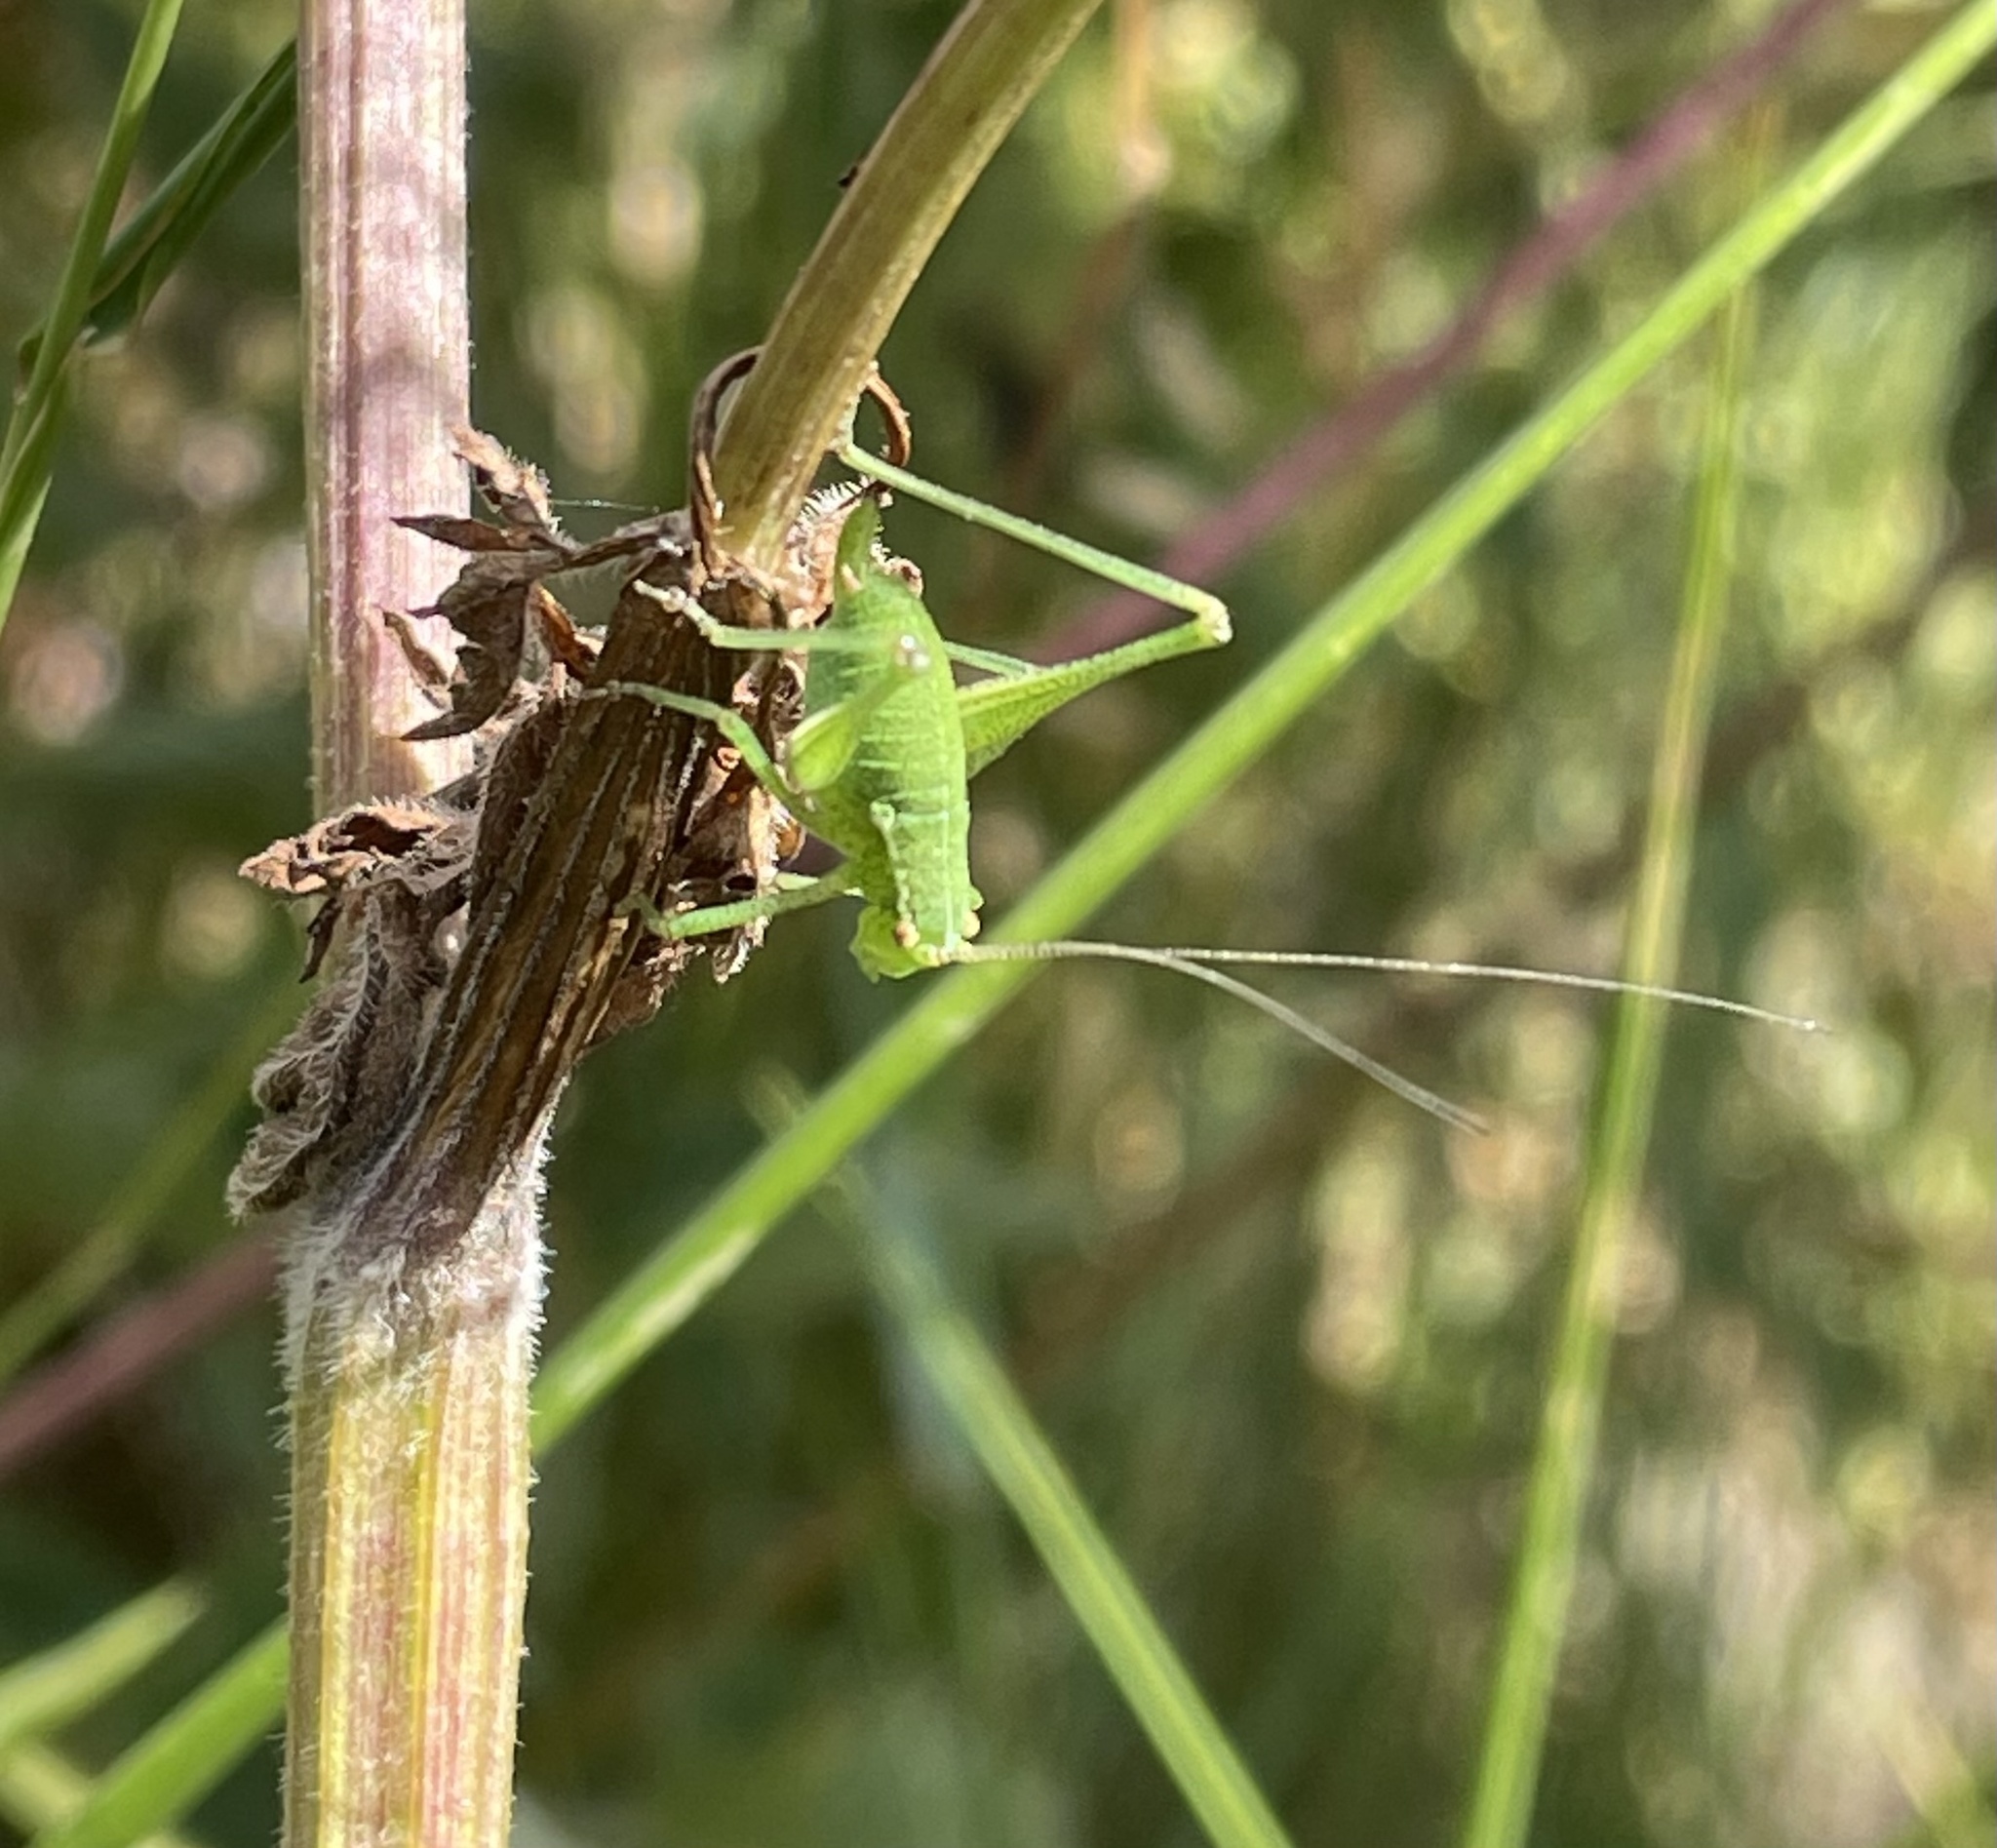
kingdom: Animalia
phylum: Arthropoda
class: Insecta
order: Orthoptera
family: Tettigoniidae
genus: Leptophyes
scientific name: Leptophyes punctatissima
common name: Speckled bush-cricket
